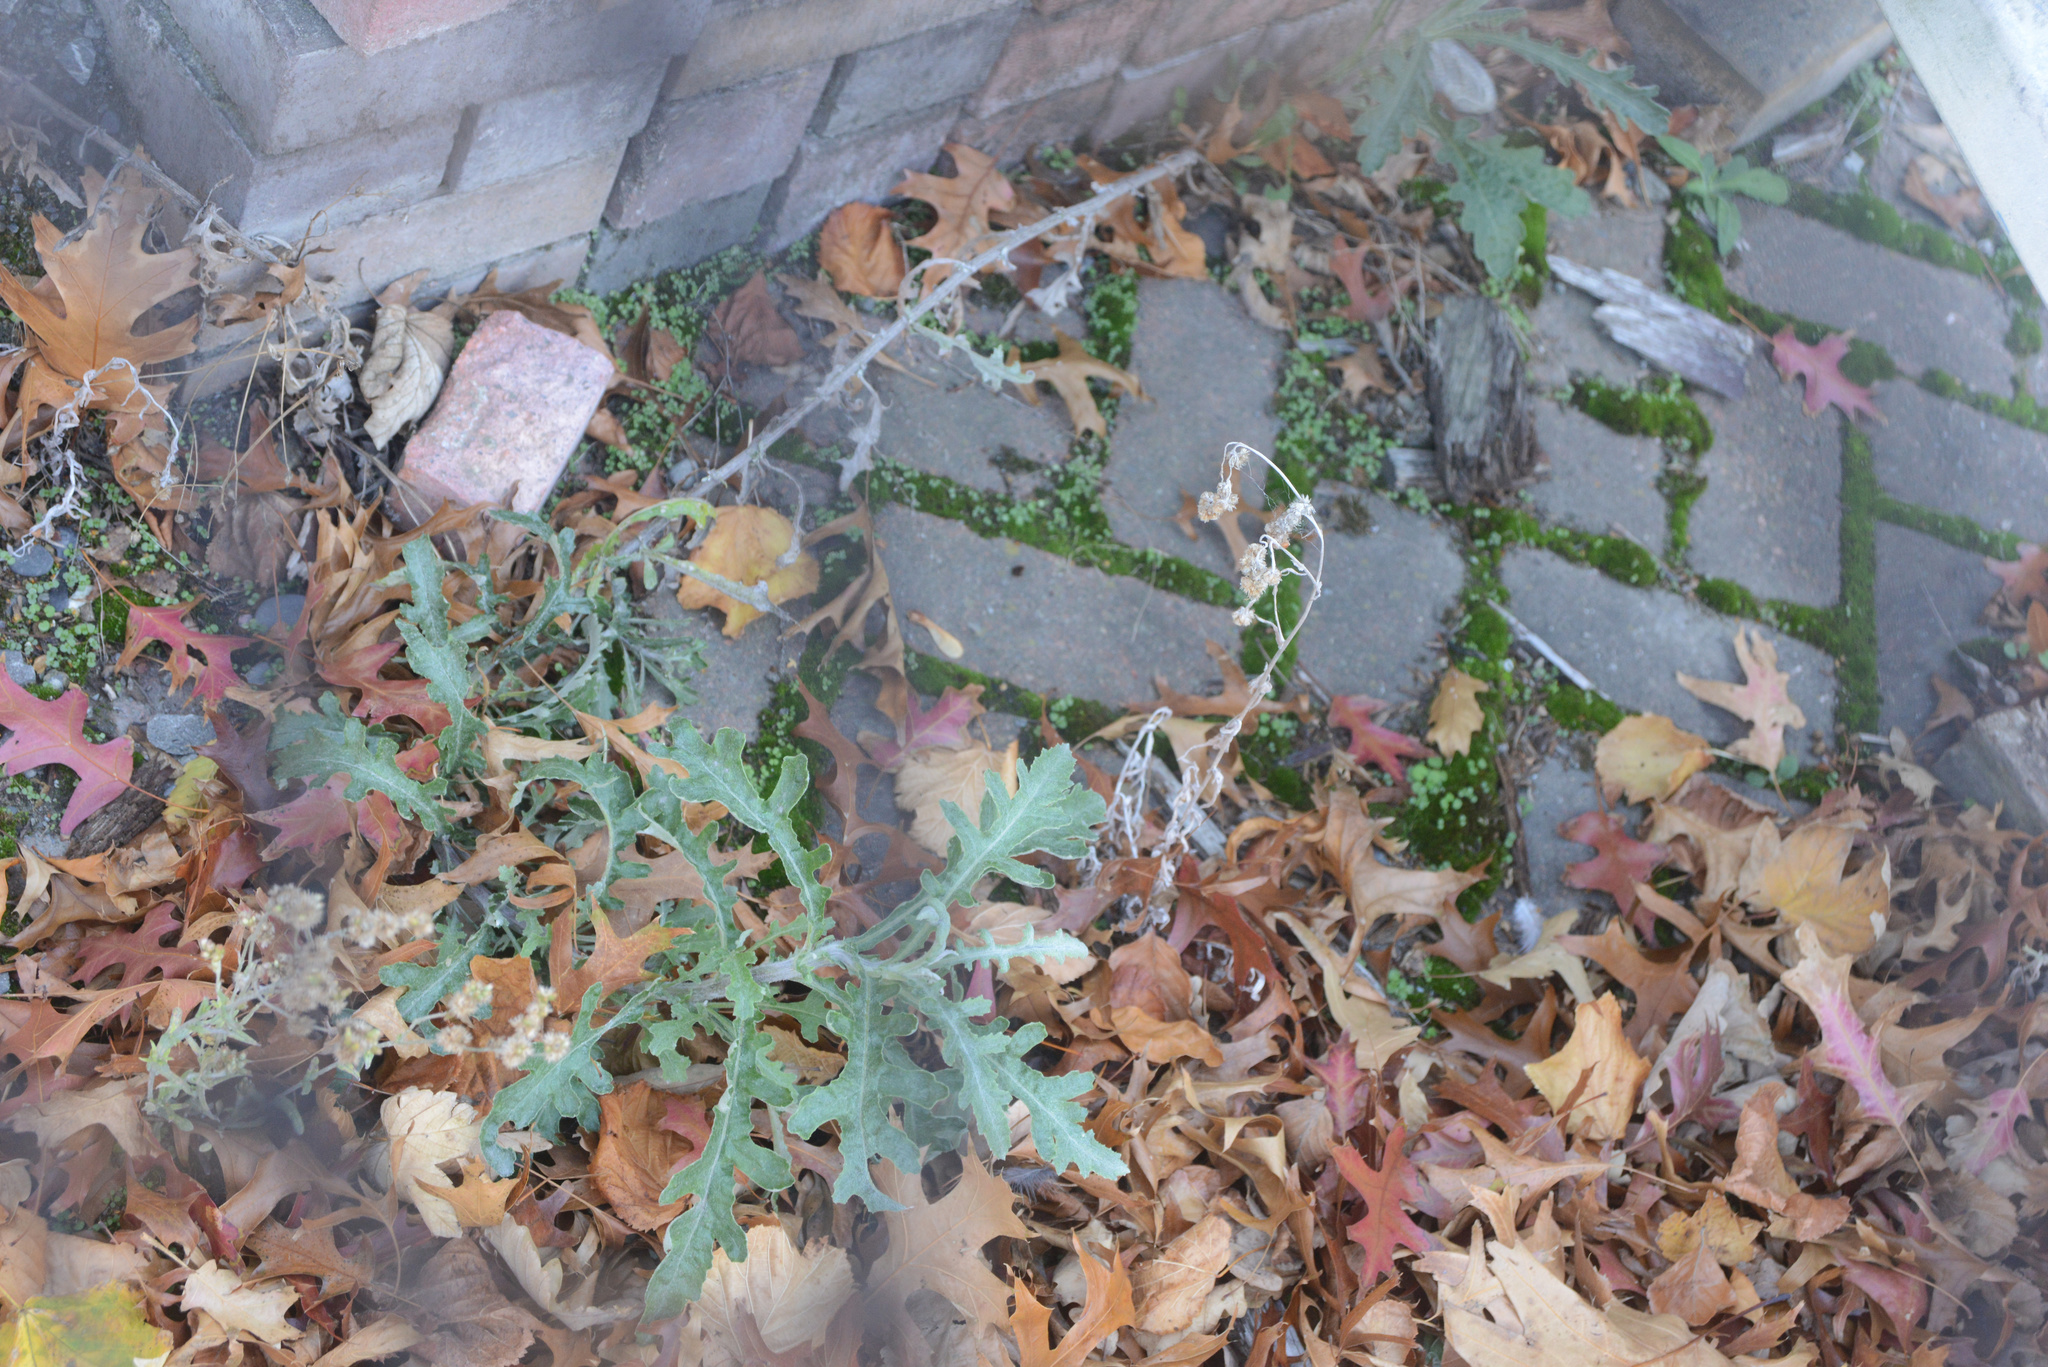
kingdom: Plantae
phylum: Tracheophyta
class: Magnoliopsida
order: Asterales
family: Asteraceae
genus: Senecio
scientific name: Senecio glomeratus
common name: Cutleaf burnweed
